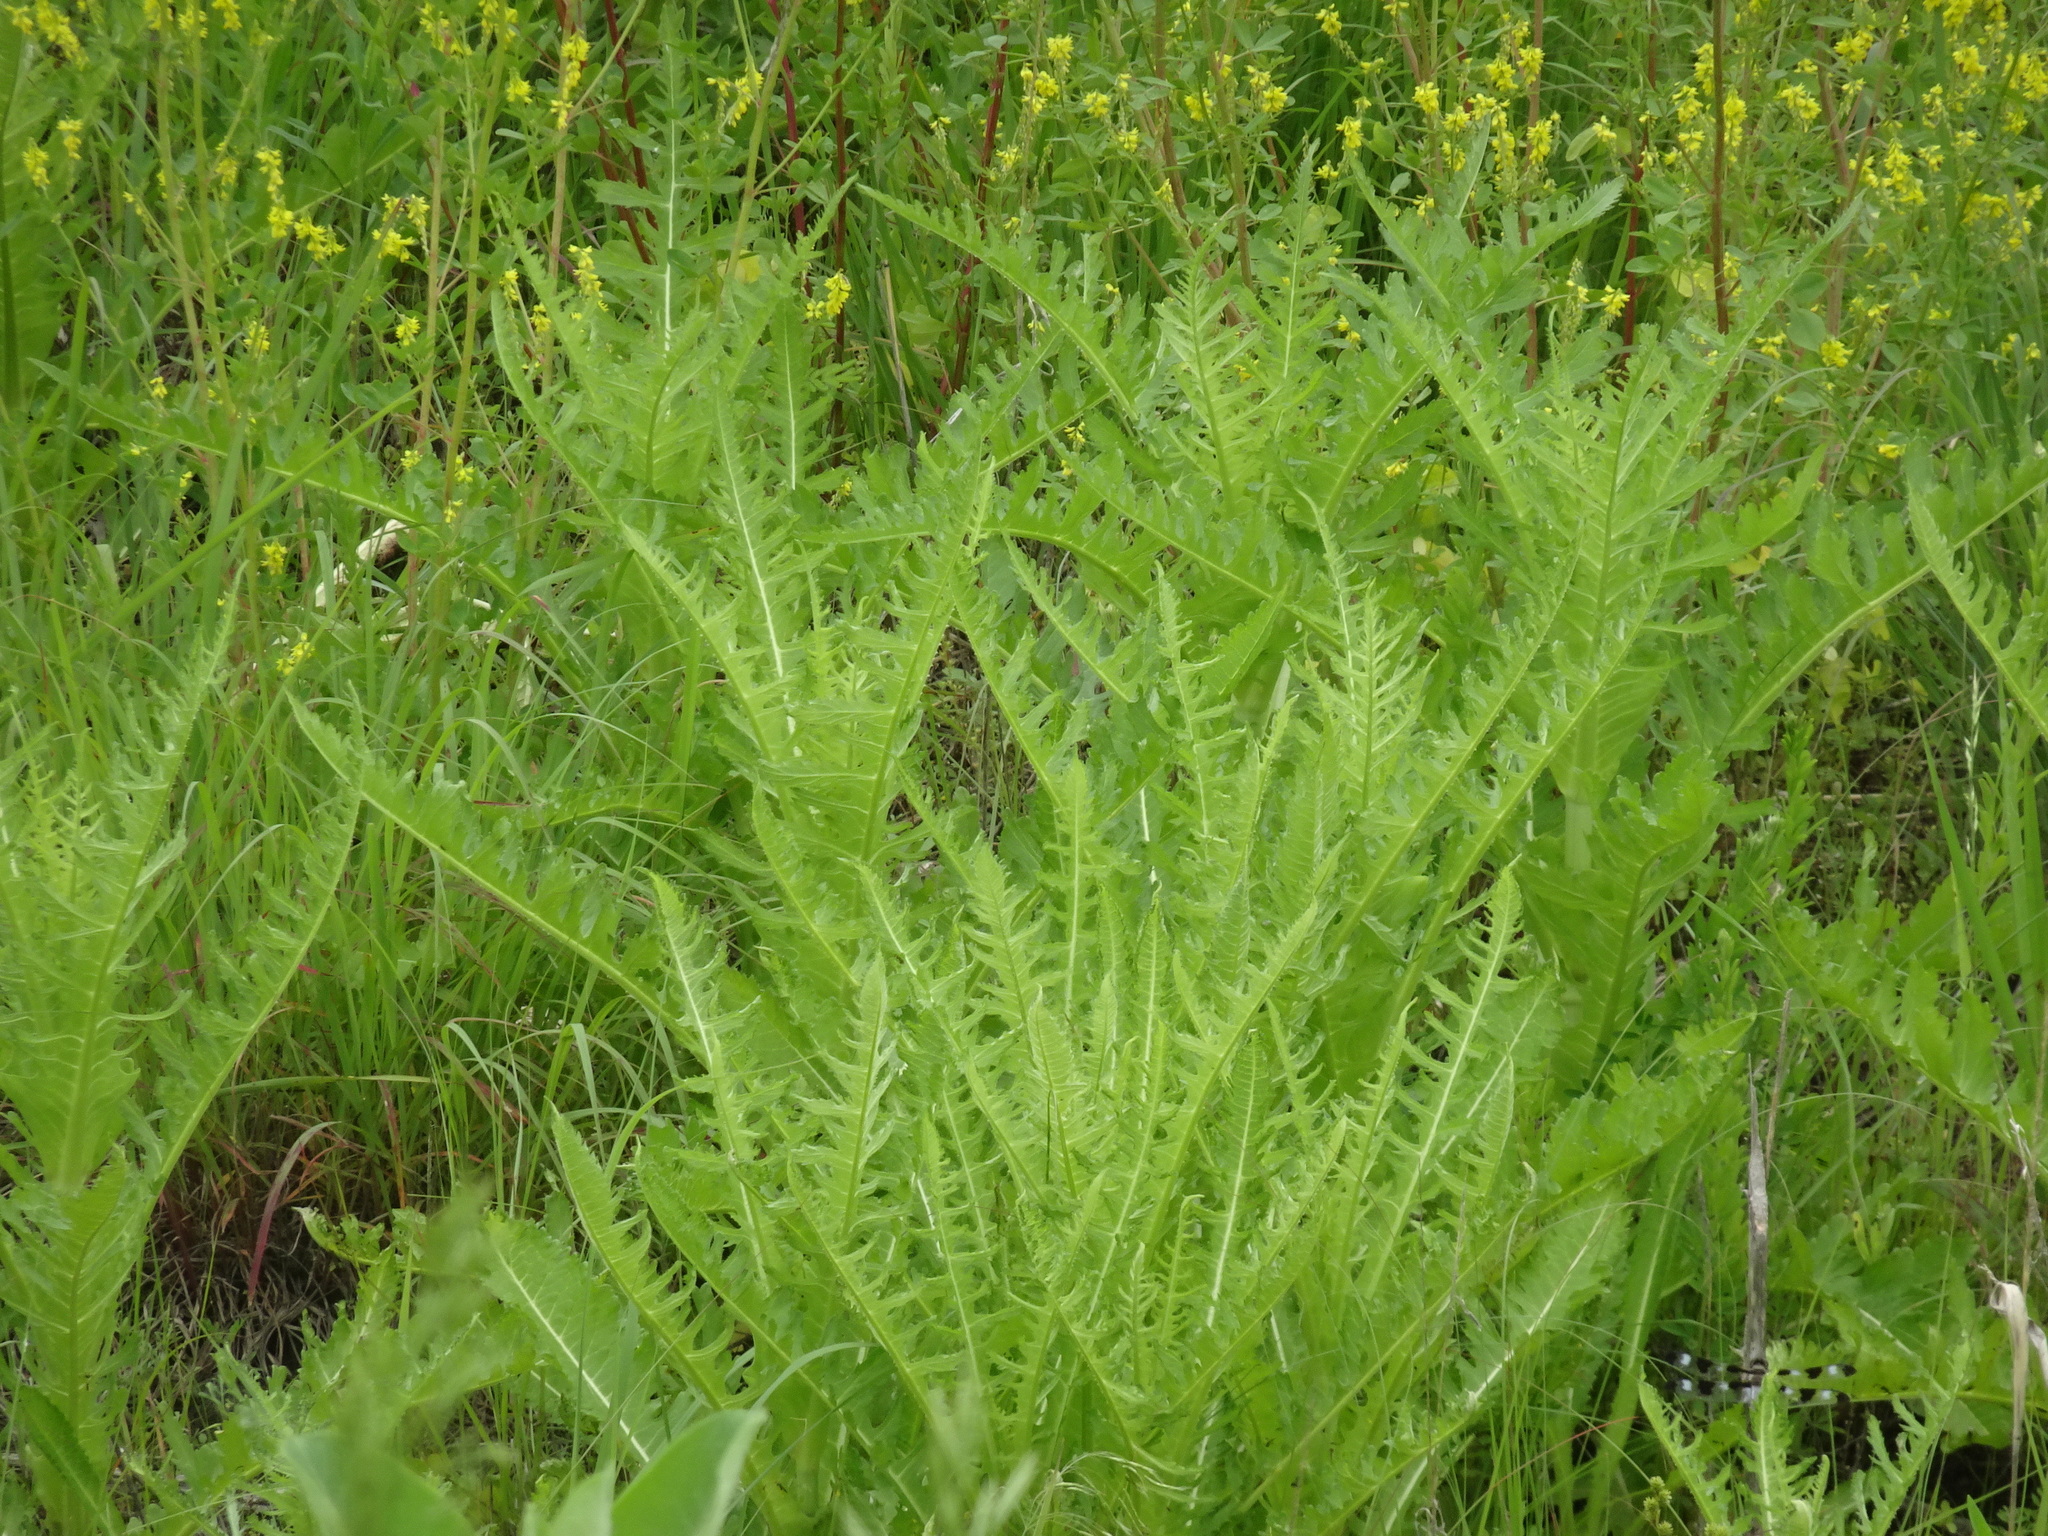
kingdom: Plantae
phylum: Tracheophyta
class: Magnoliopsida
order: Dipsacales
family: Caprifoliaceae
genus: Dipsacus
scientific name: Dipsacus laciniatus
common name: Cut-leaved teasel
